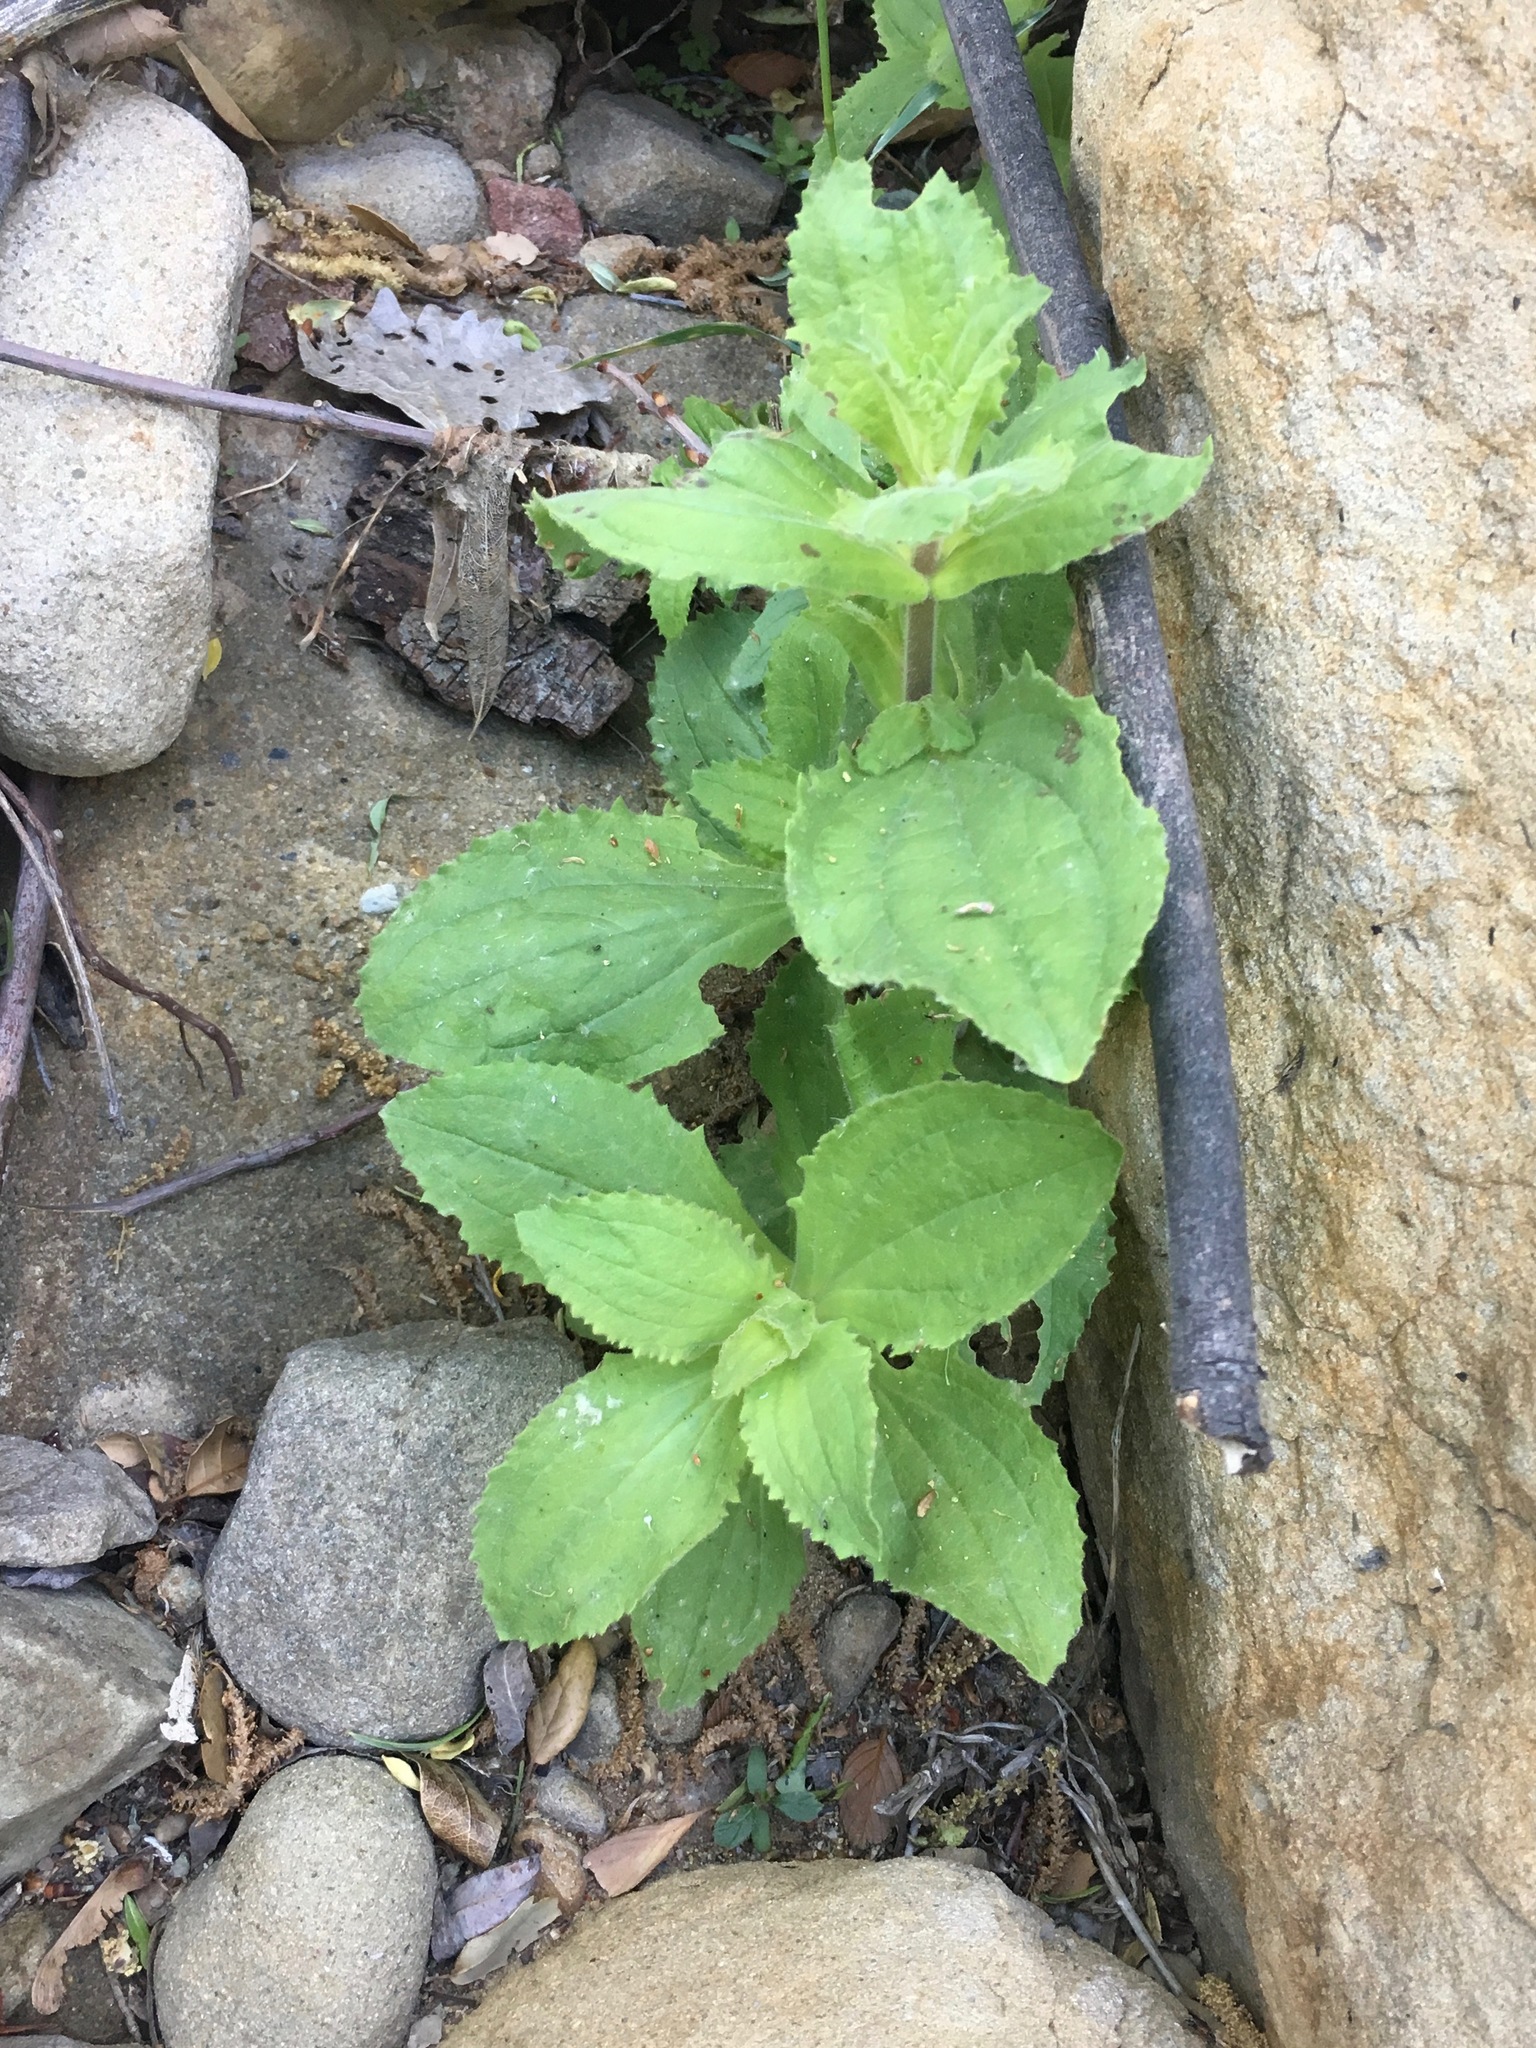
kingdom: Plantae
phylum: Tracheophyta
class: Magnoliopsida
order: Lamiales
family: Phrymaceae
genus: Erythranthe
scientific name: Erythranthe cardinalis
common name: Scarlet monkey-flower
